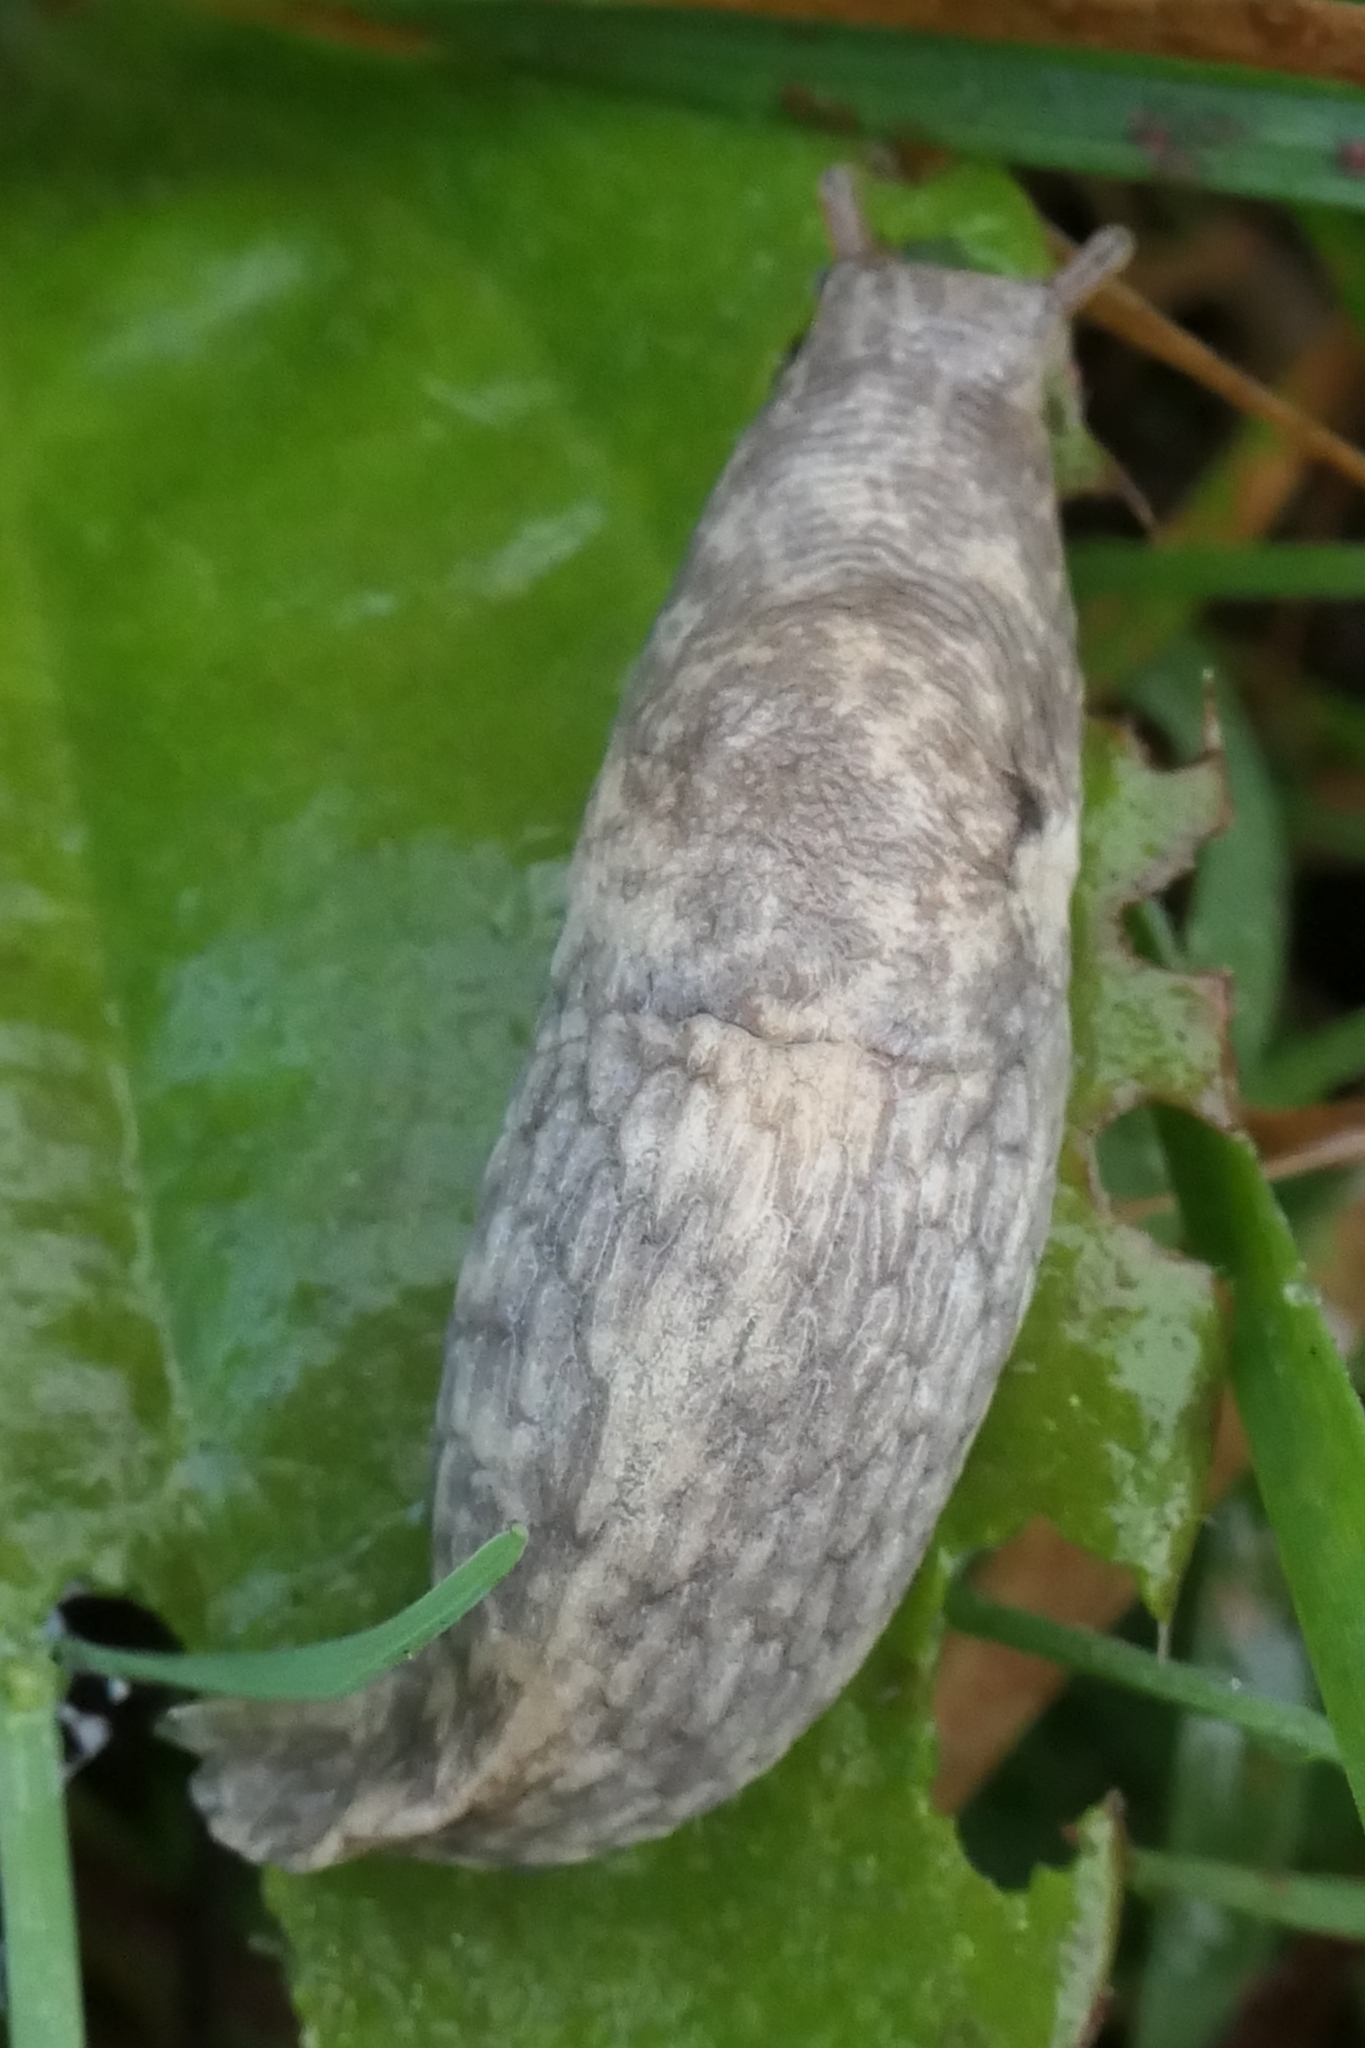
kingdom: Animalia
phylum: Mollusca
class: Gastropoda
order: Stylommatophora
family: Agriolimacidae
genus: Deroceras
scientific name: Deroceras reticulatum
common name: Gray field slug
